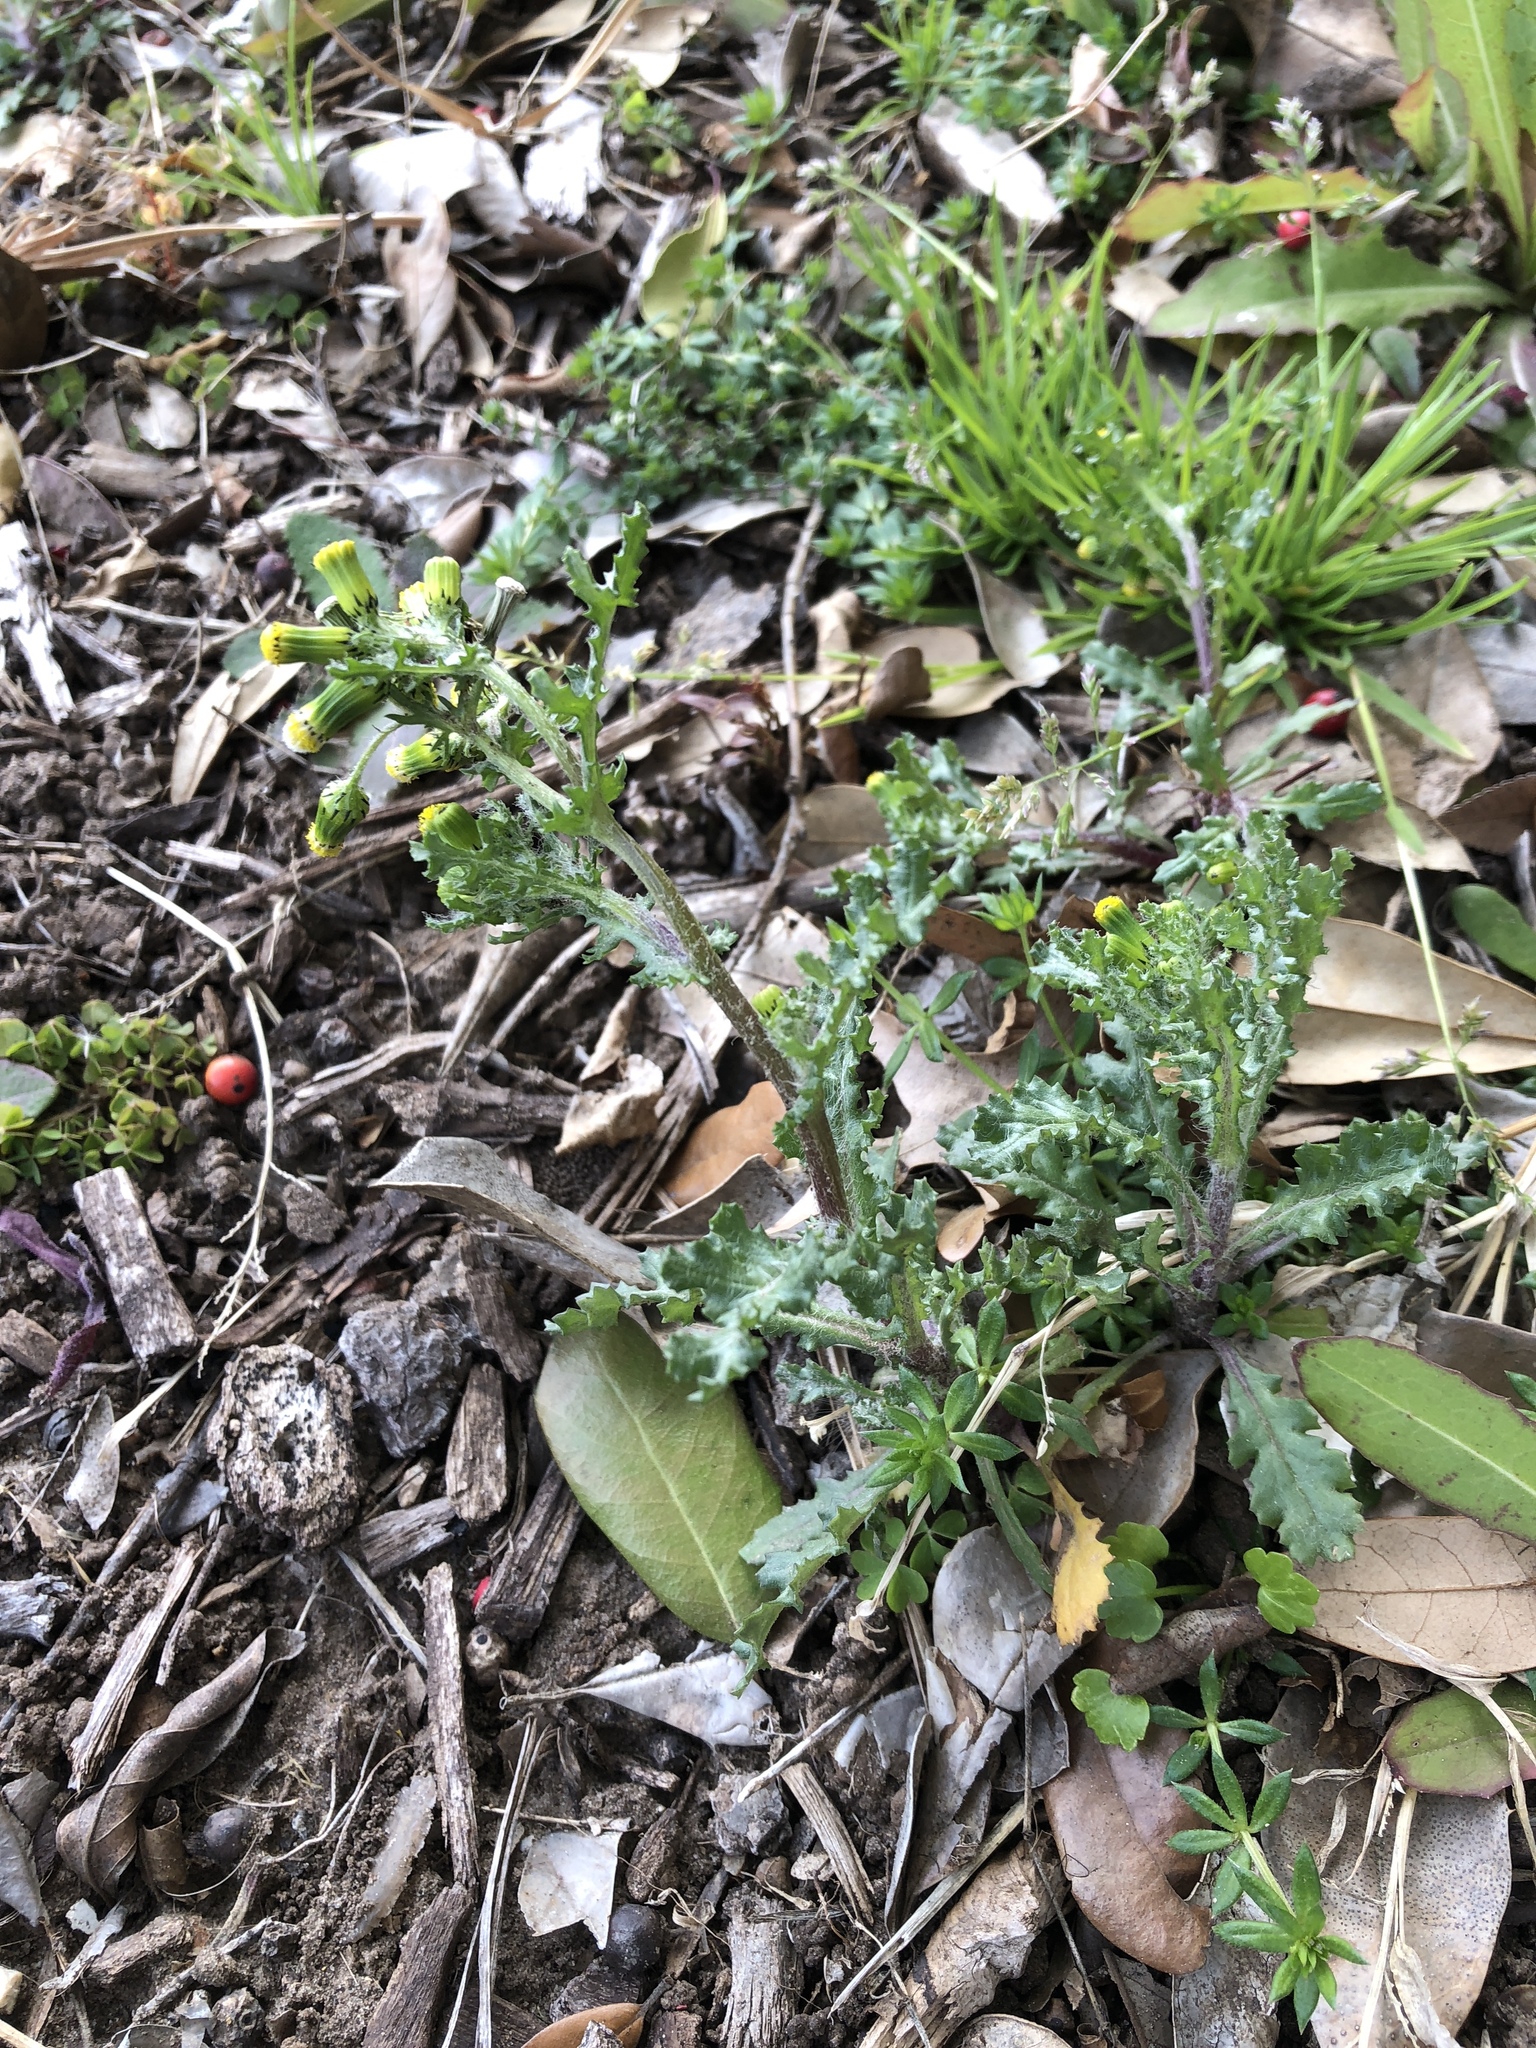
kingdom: Plantae
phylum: Tracheophyta
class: Magnoliopsida
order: Asterales
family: Asteraceae
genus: Senecio
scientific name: Senecio vulgaris
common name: Old-man-in-the-spring
